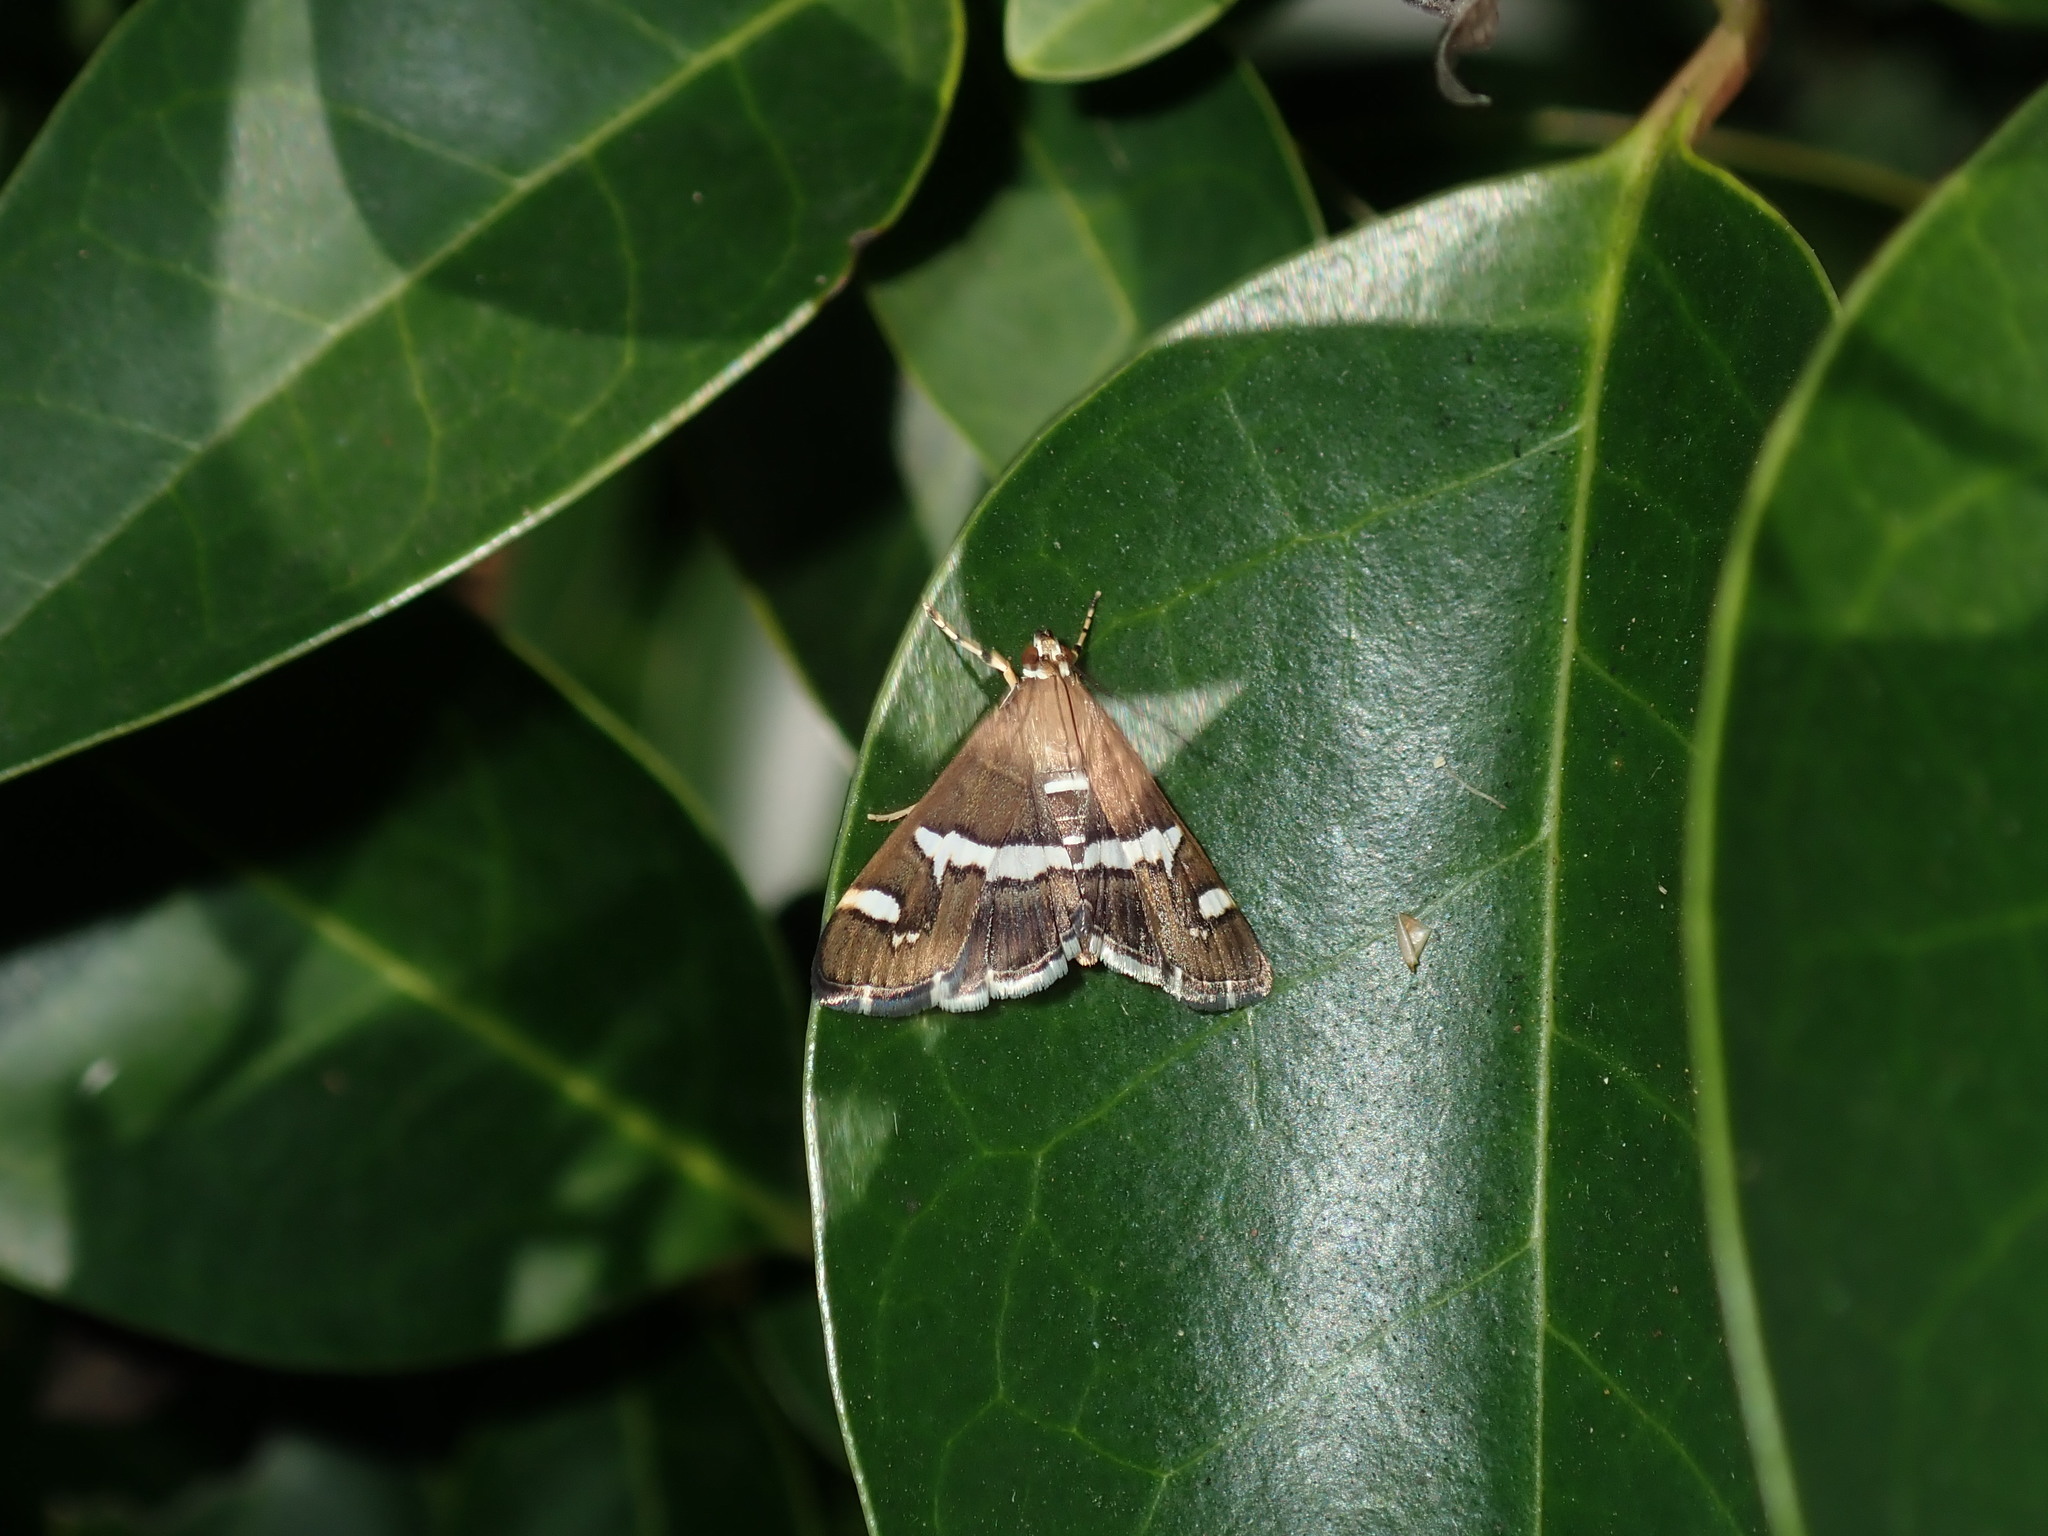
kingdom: Animalia
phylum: Arthropoda
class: Insecta
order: Lepidoptera
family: Crambidae
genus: Spoladea
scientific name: Spoladea recurvalis
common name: Beet webworm moth
